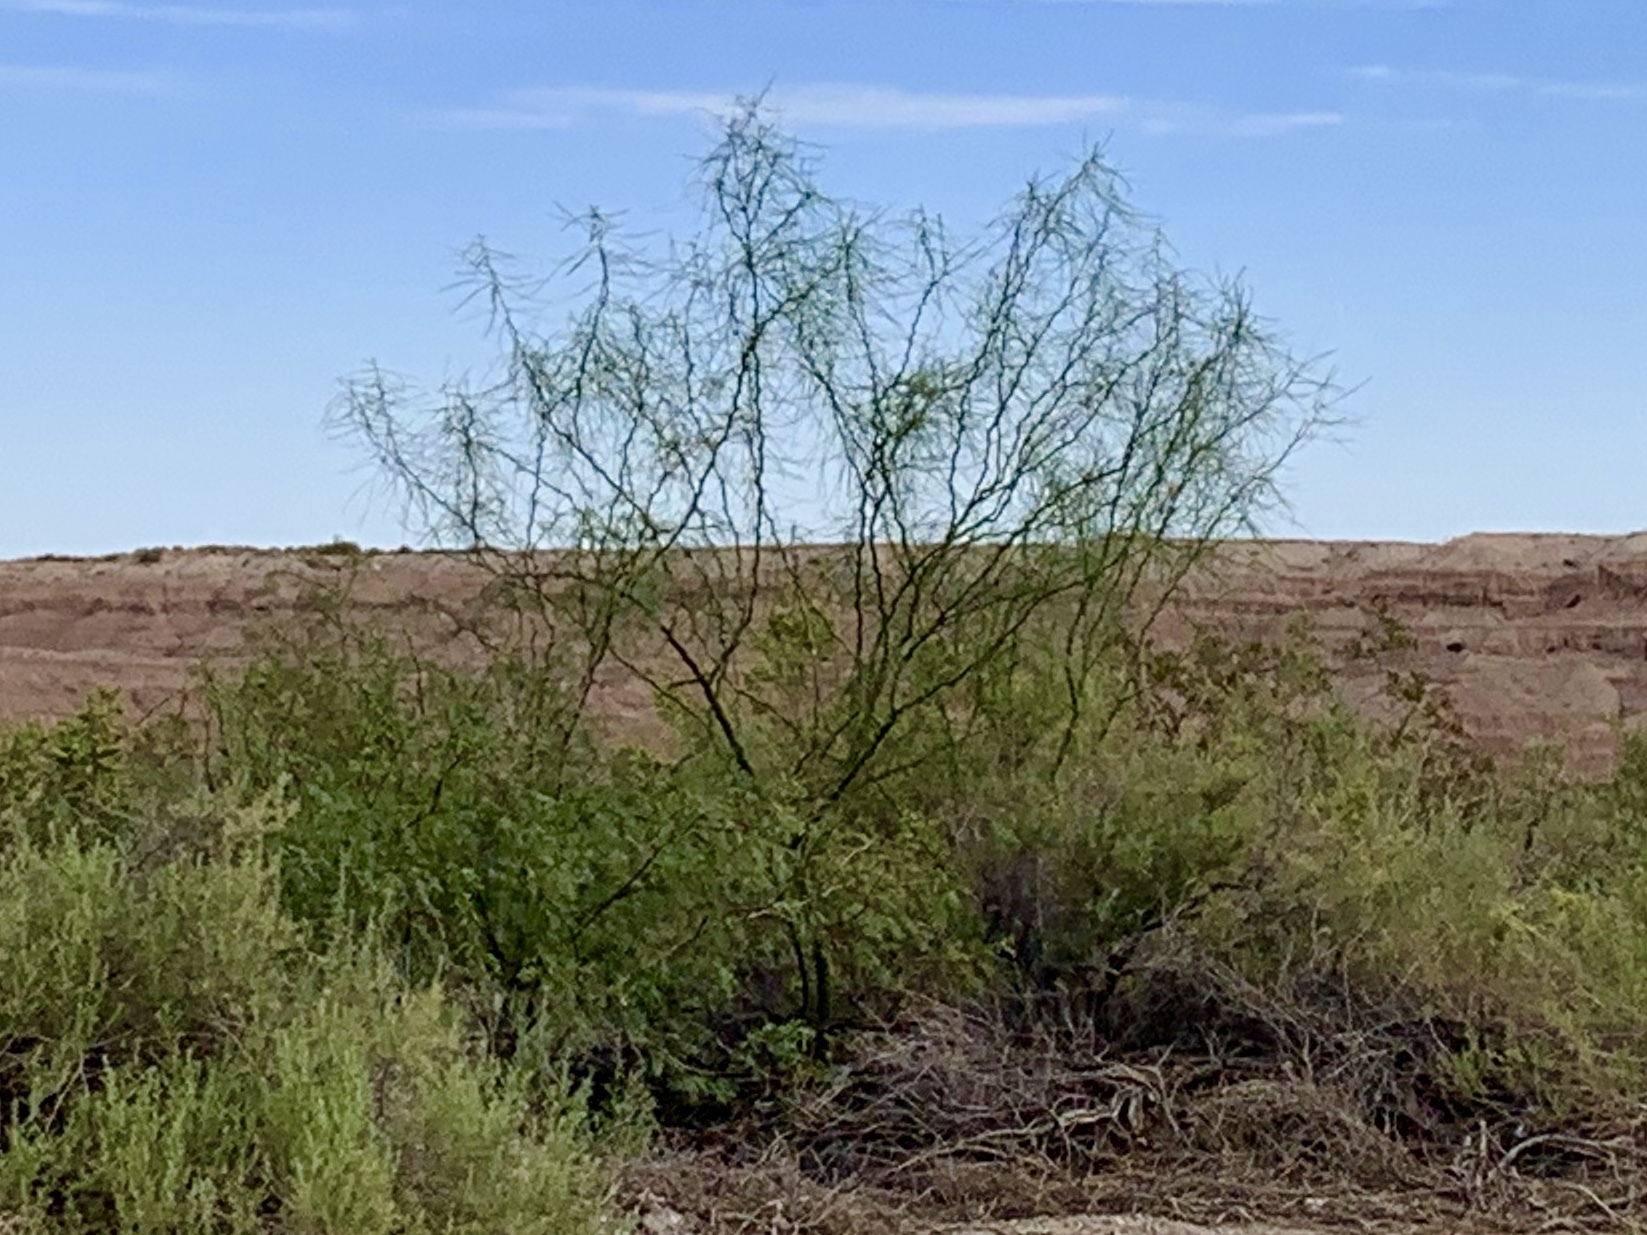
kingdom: Plantae
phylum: Tracheophyta
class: Magnoliopsida
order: Fabales
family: Fabaceae
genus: Parkinsonia
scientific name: Parkinsonia aculeata
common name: Jerusalem thorn
